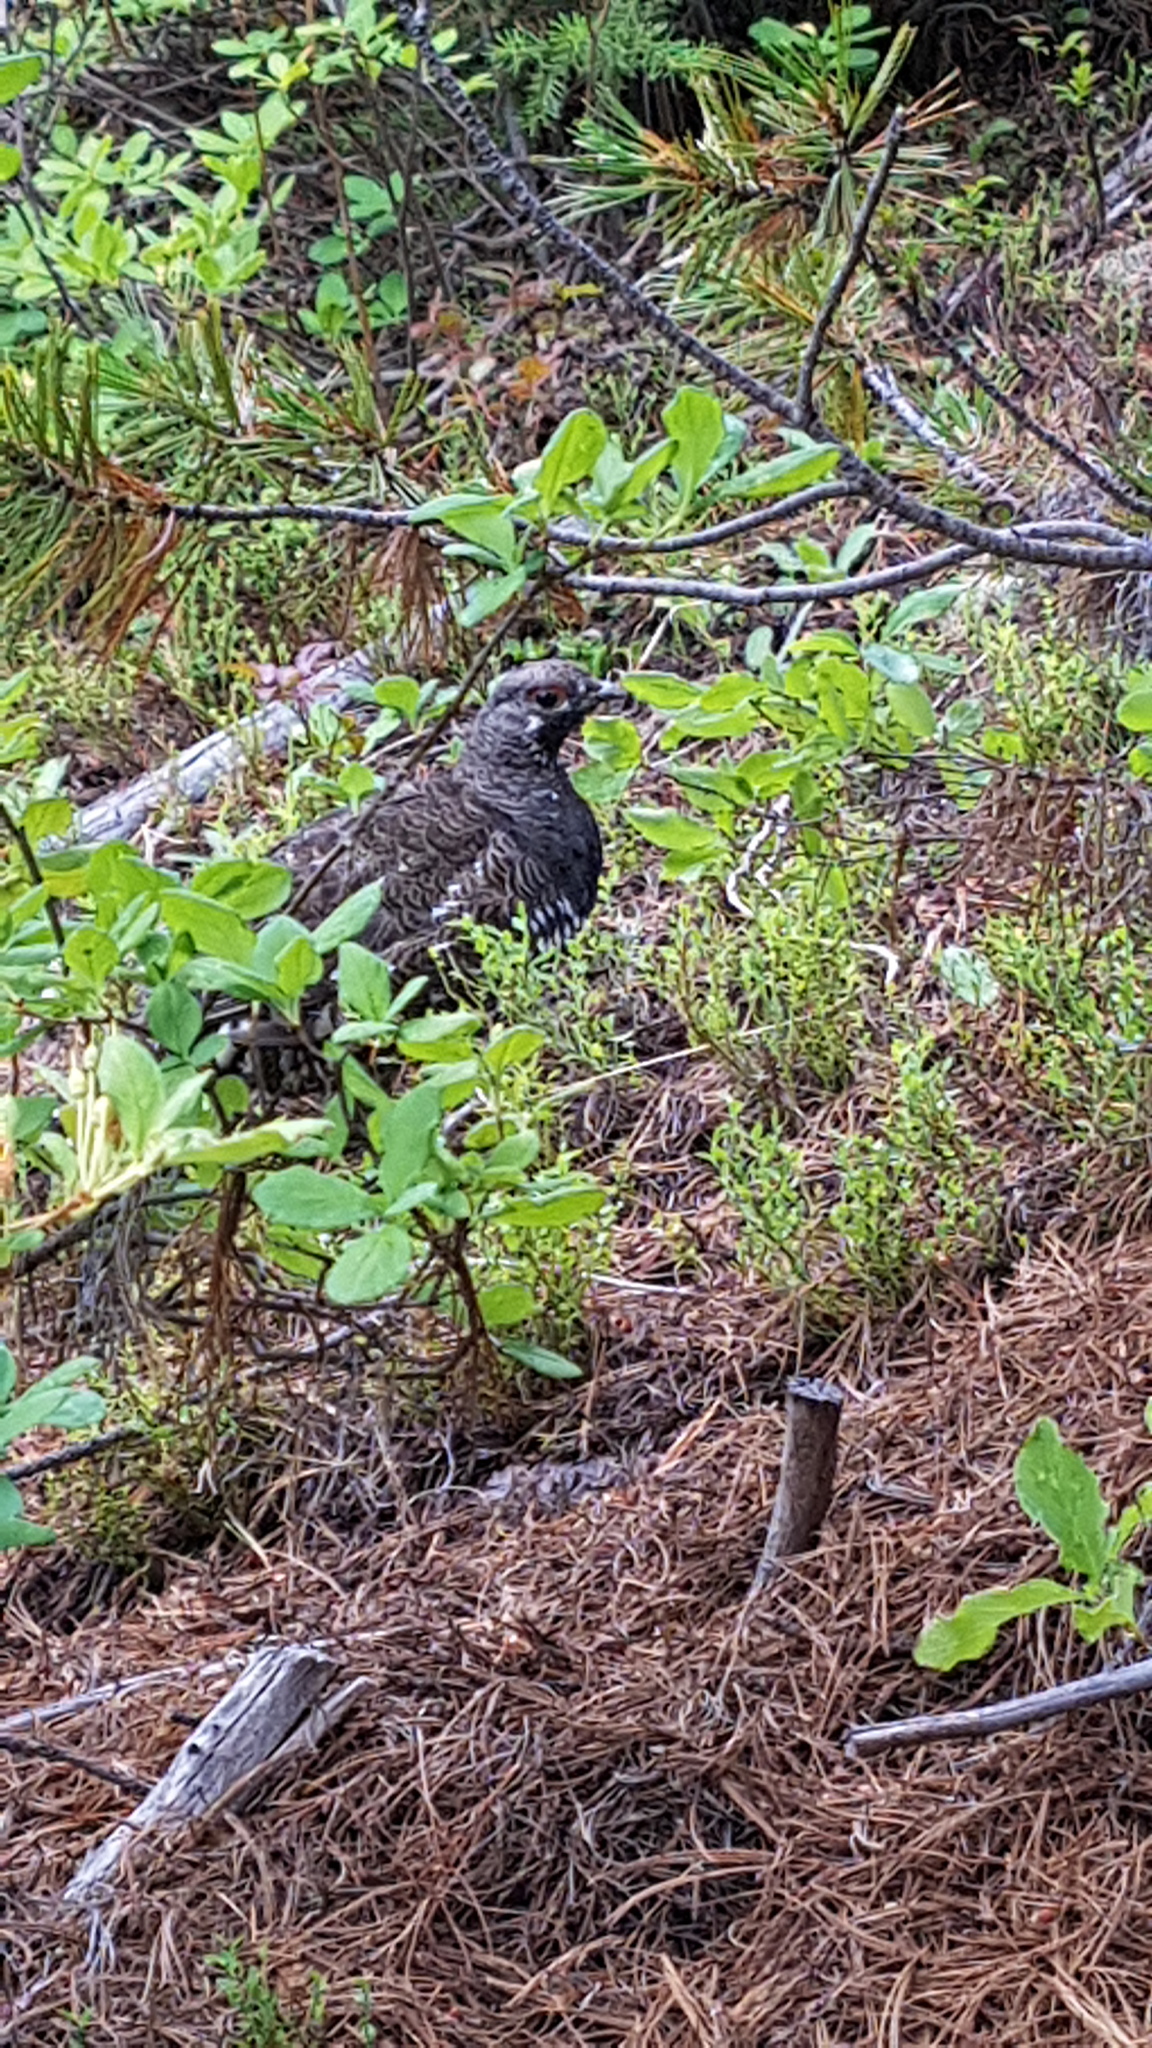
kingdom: Animalia
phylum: Chordata
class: Aves
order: Galliformes
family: Phasianidae
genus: Canachites
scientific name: Canachites canadensis
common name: Spruce grouse
